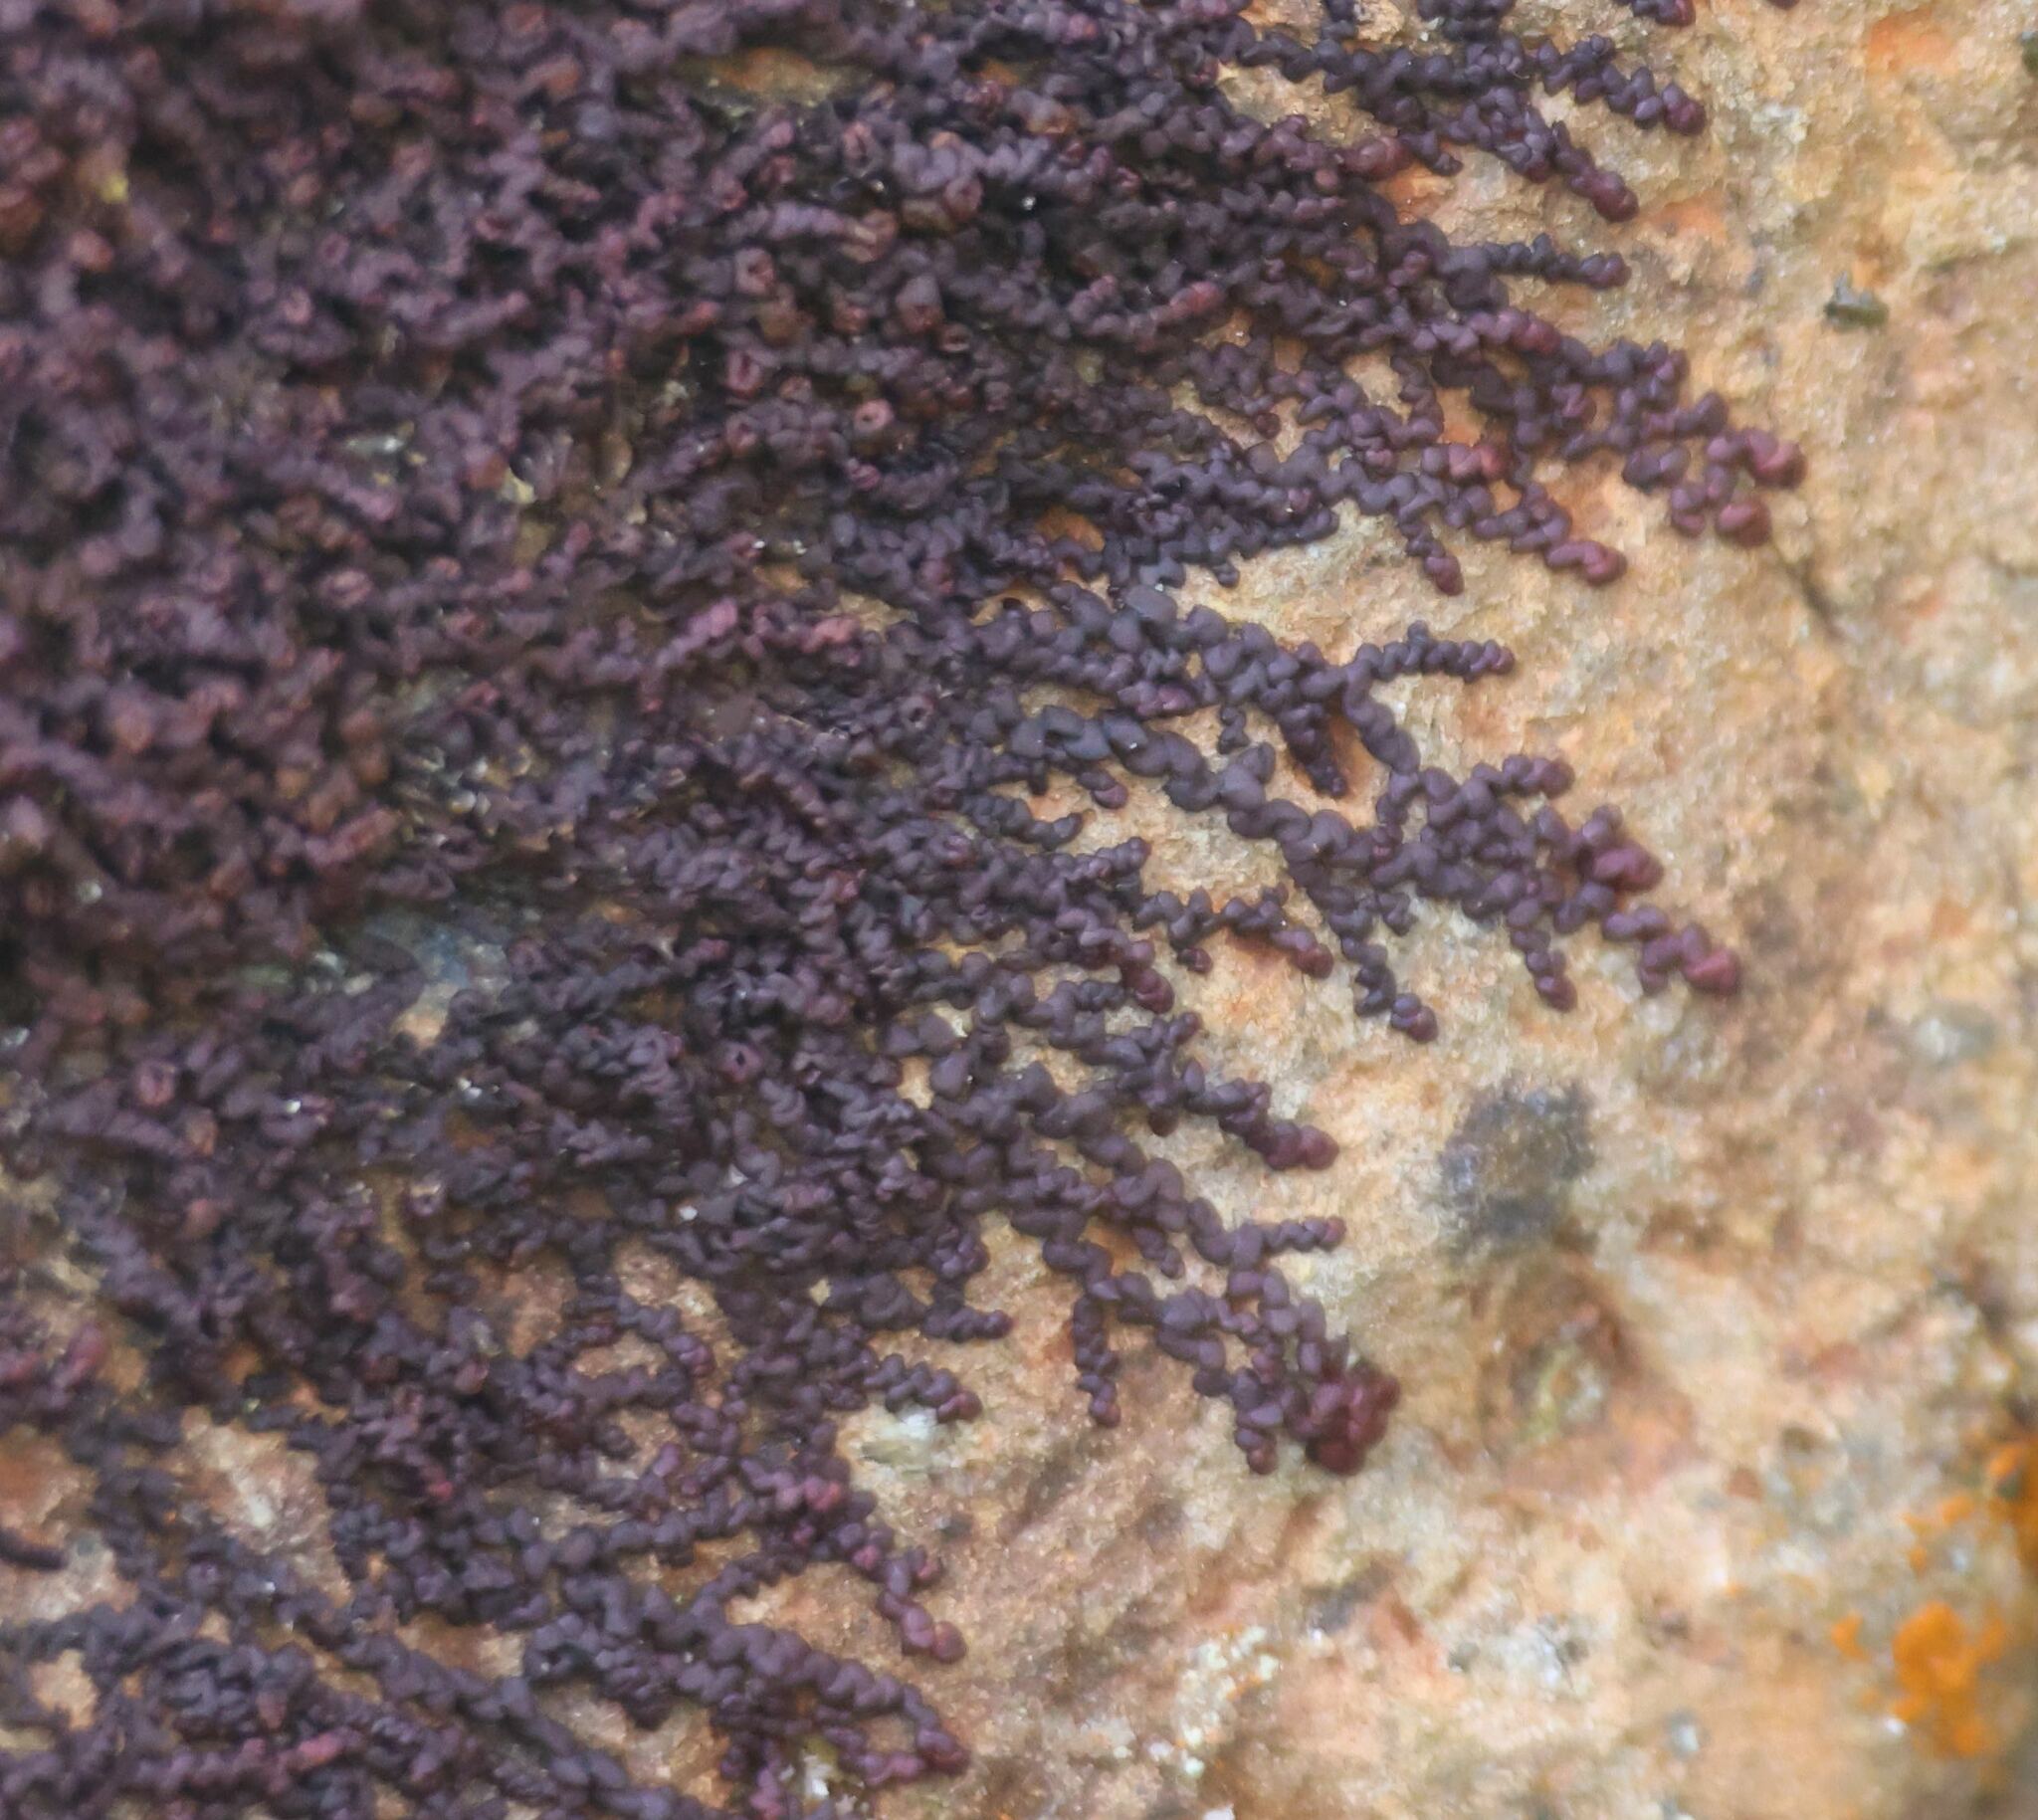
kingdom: Plantae
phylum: Marchantiophyta
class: Jungermanniopsida
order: Porellales
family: Frullaniaceae
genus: Frullania
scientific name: Frullania dilatata
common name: Dilated scalewort
